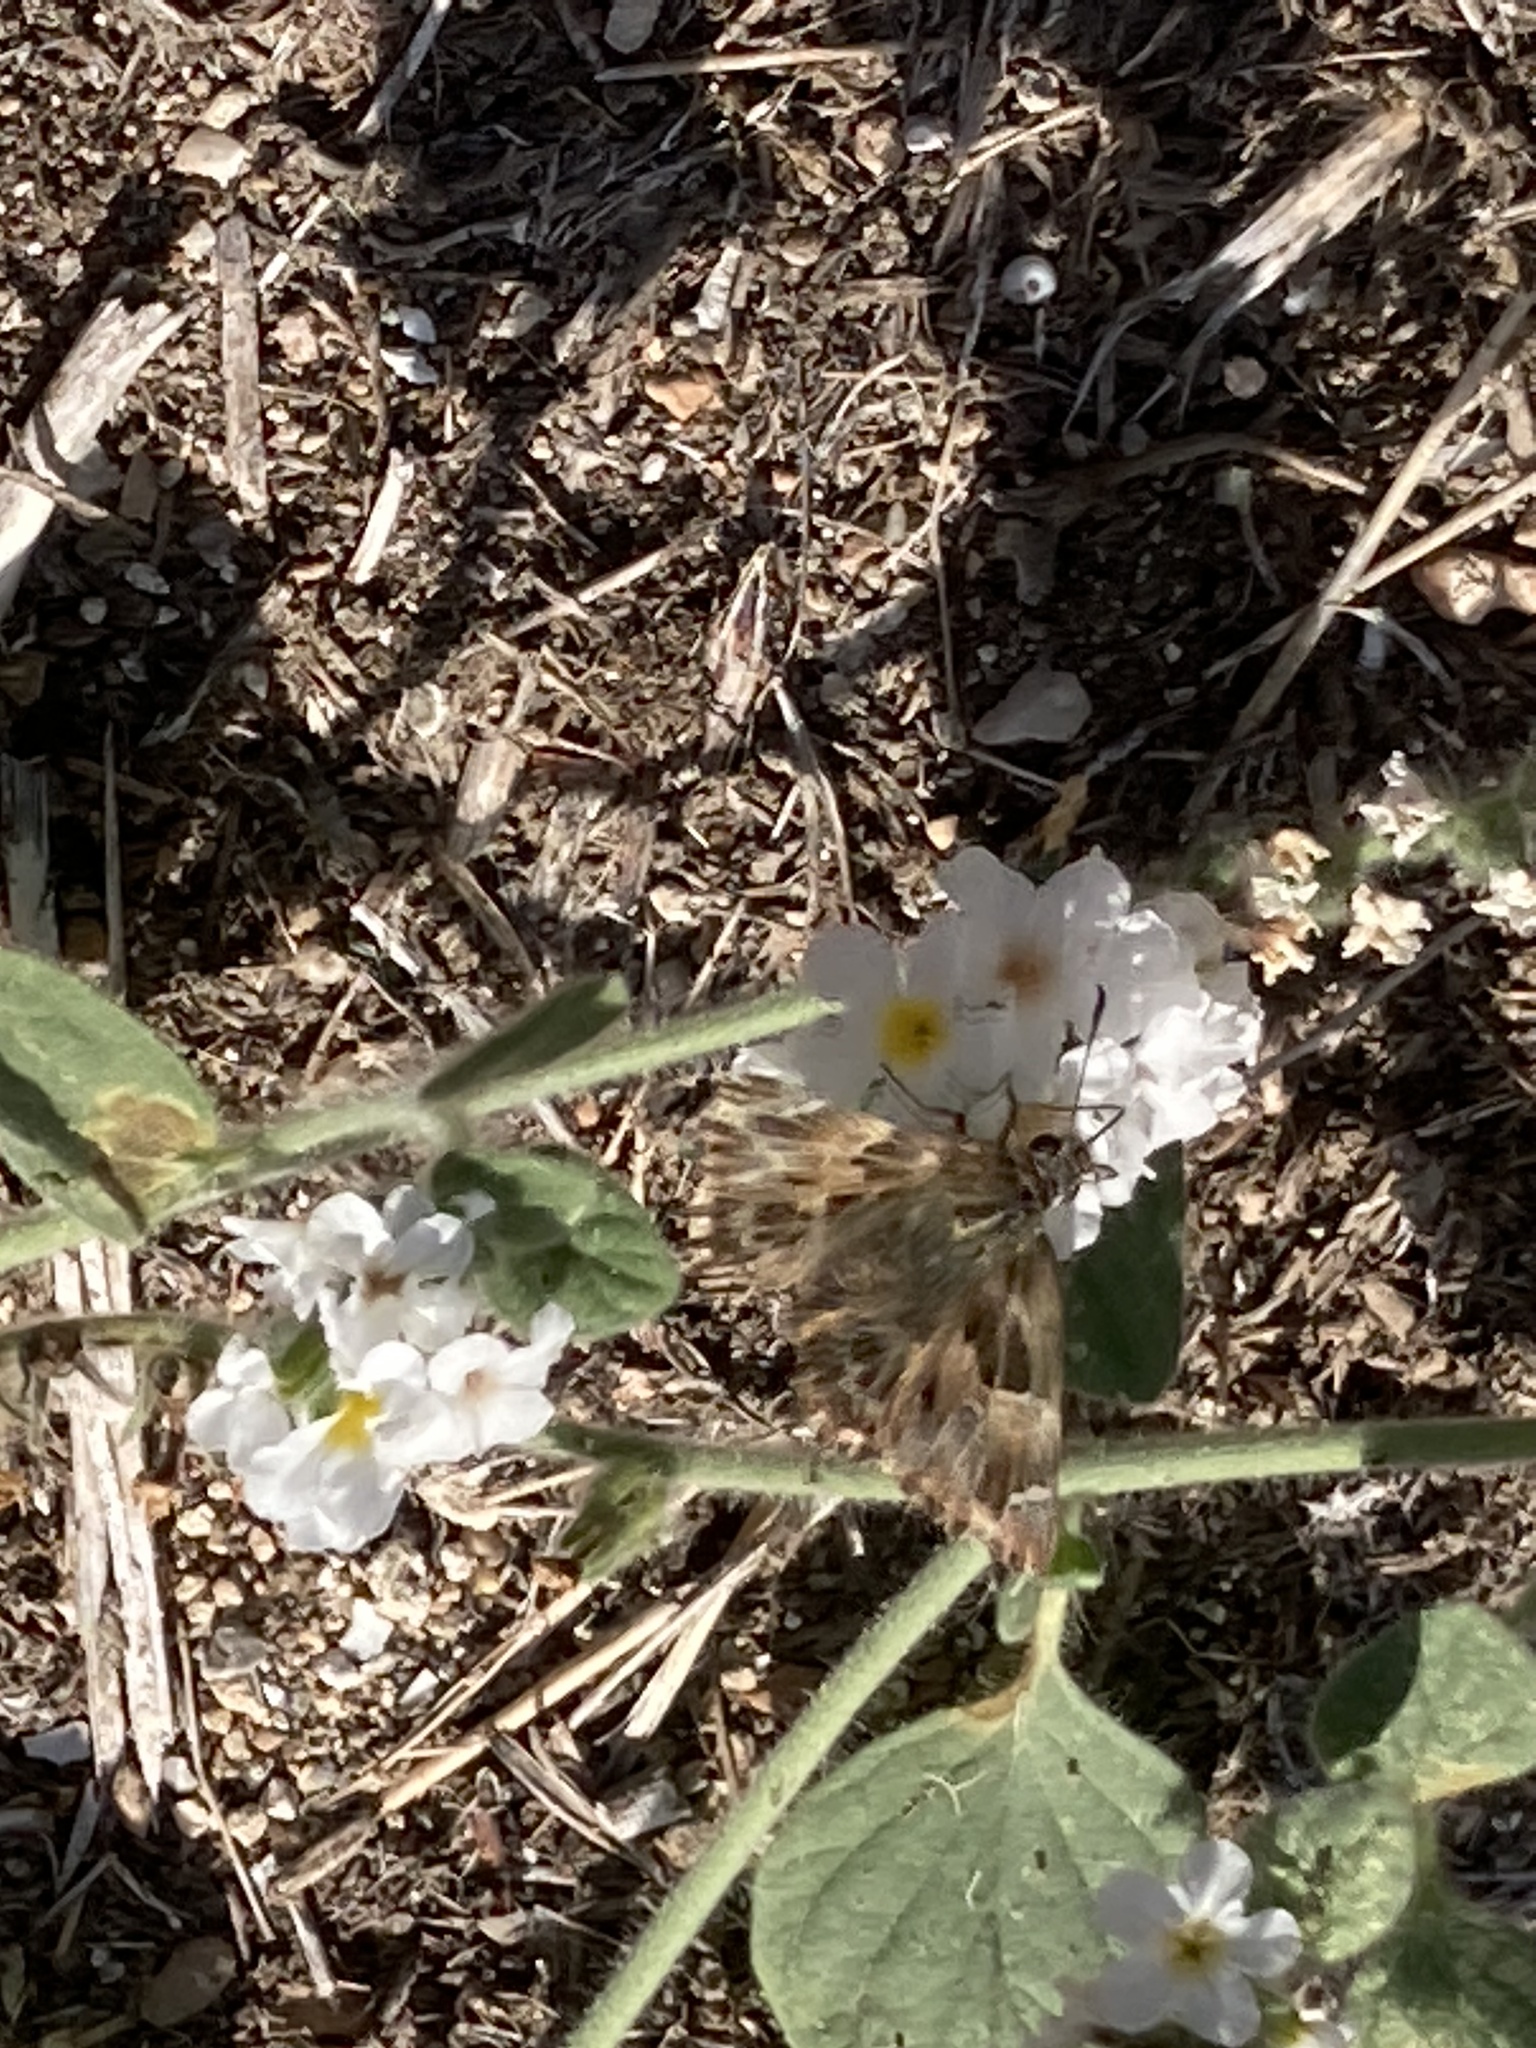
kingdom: Animalia
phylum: Arthropoda
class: Insecta
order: Lepidoptera
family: Hesperiidae
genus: Carcharodus
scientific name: Carcharodus alceae
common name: Mallow skipper
